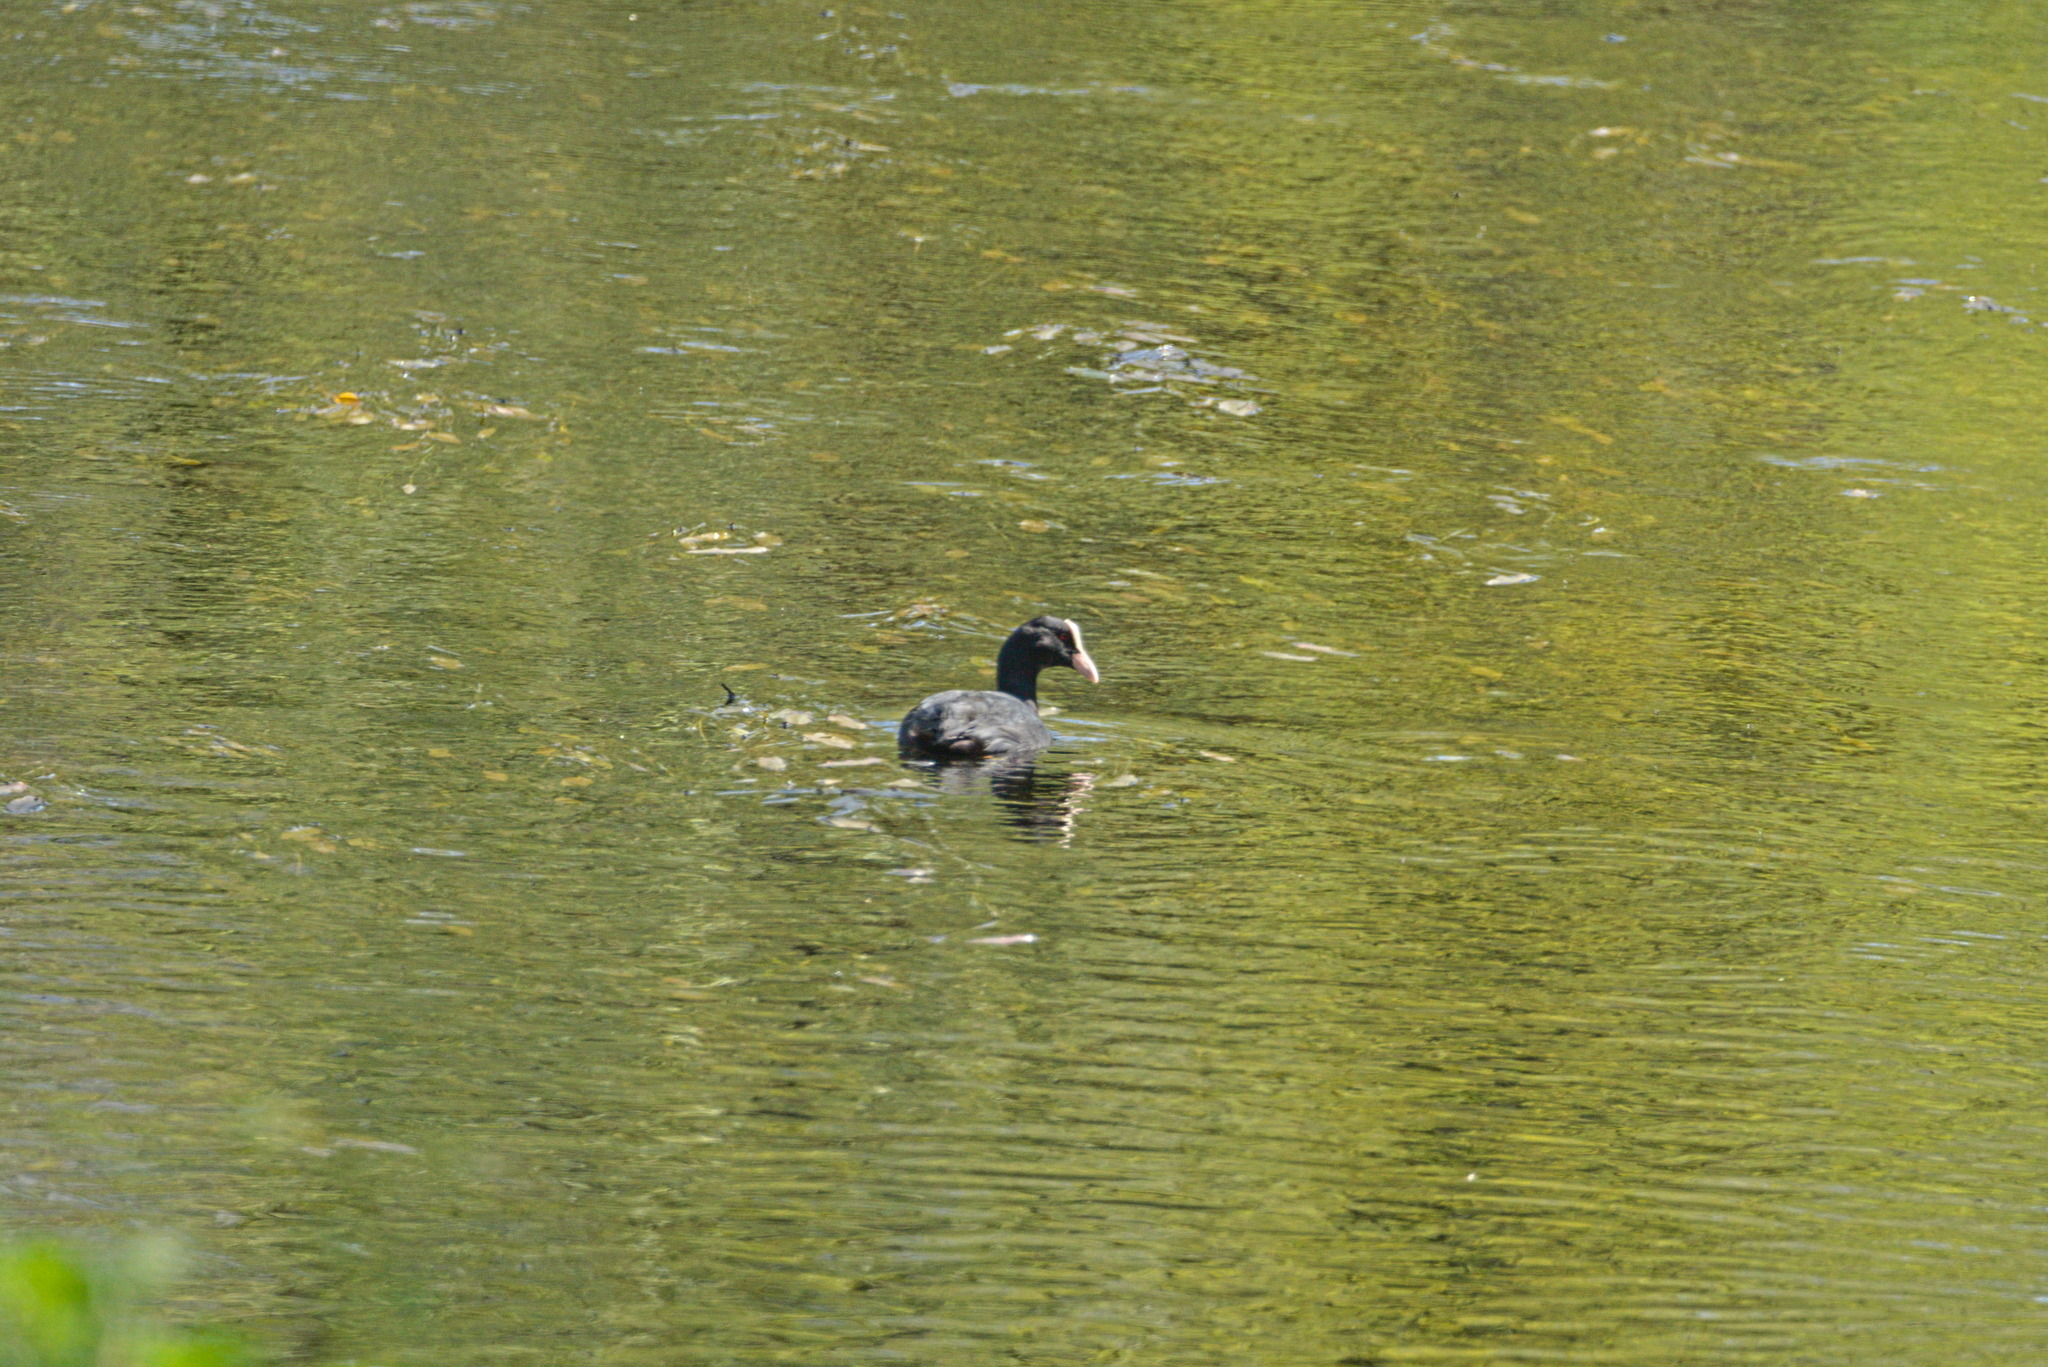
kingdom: Animalia
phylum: Chordata
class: Aves
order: Gruiformes
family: Rallidae
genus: Fulica
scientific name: Fulica atra
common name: Eurasian coot
